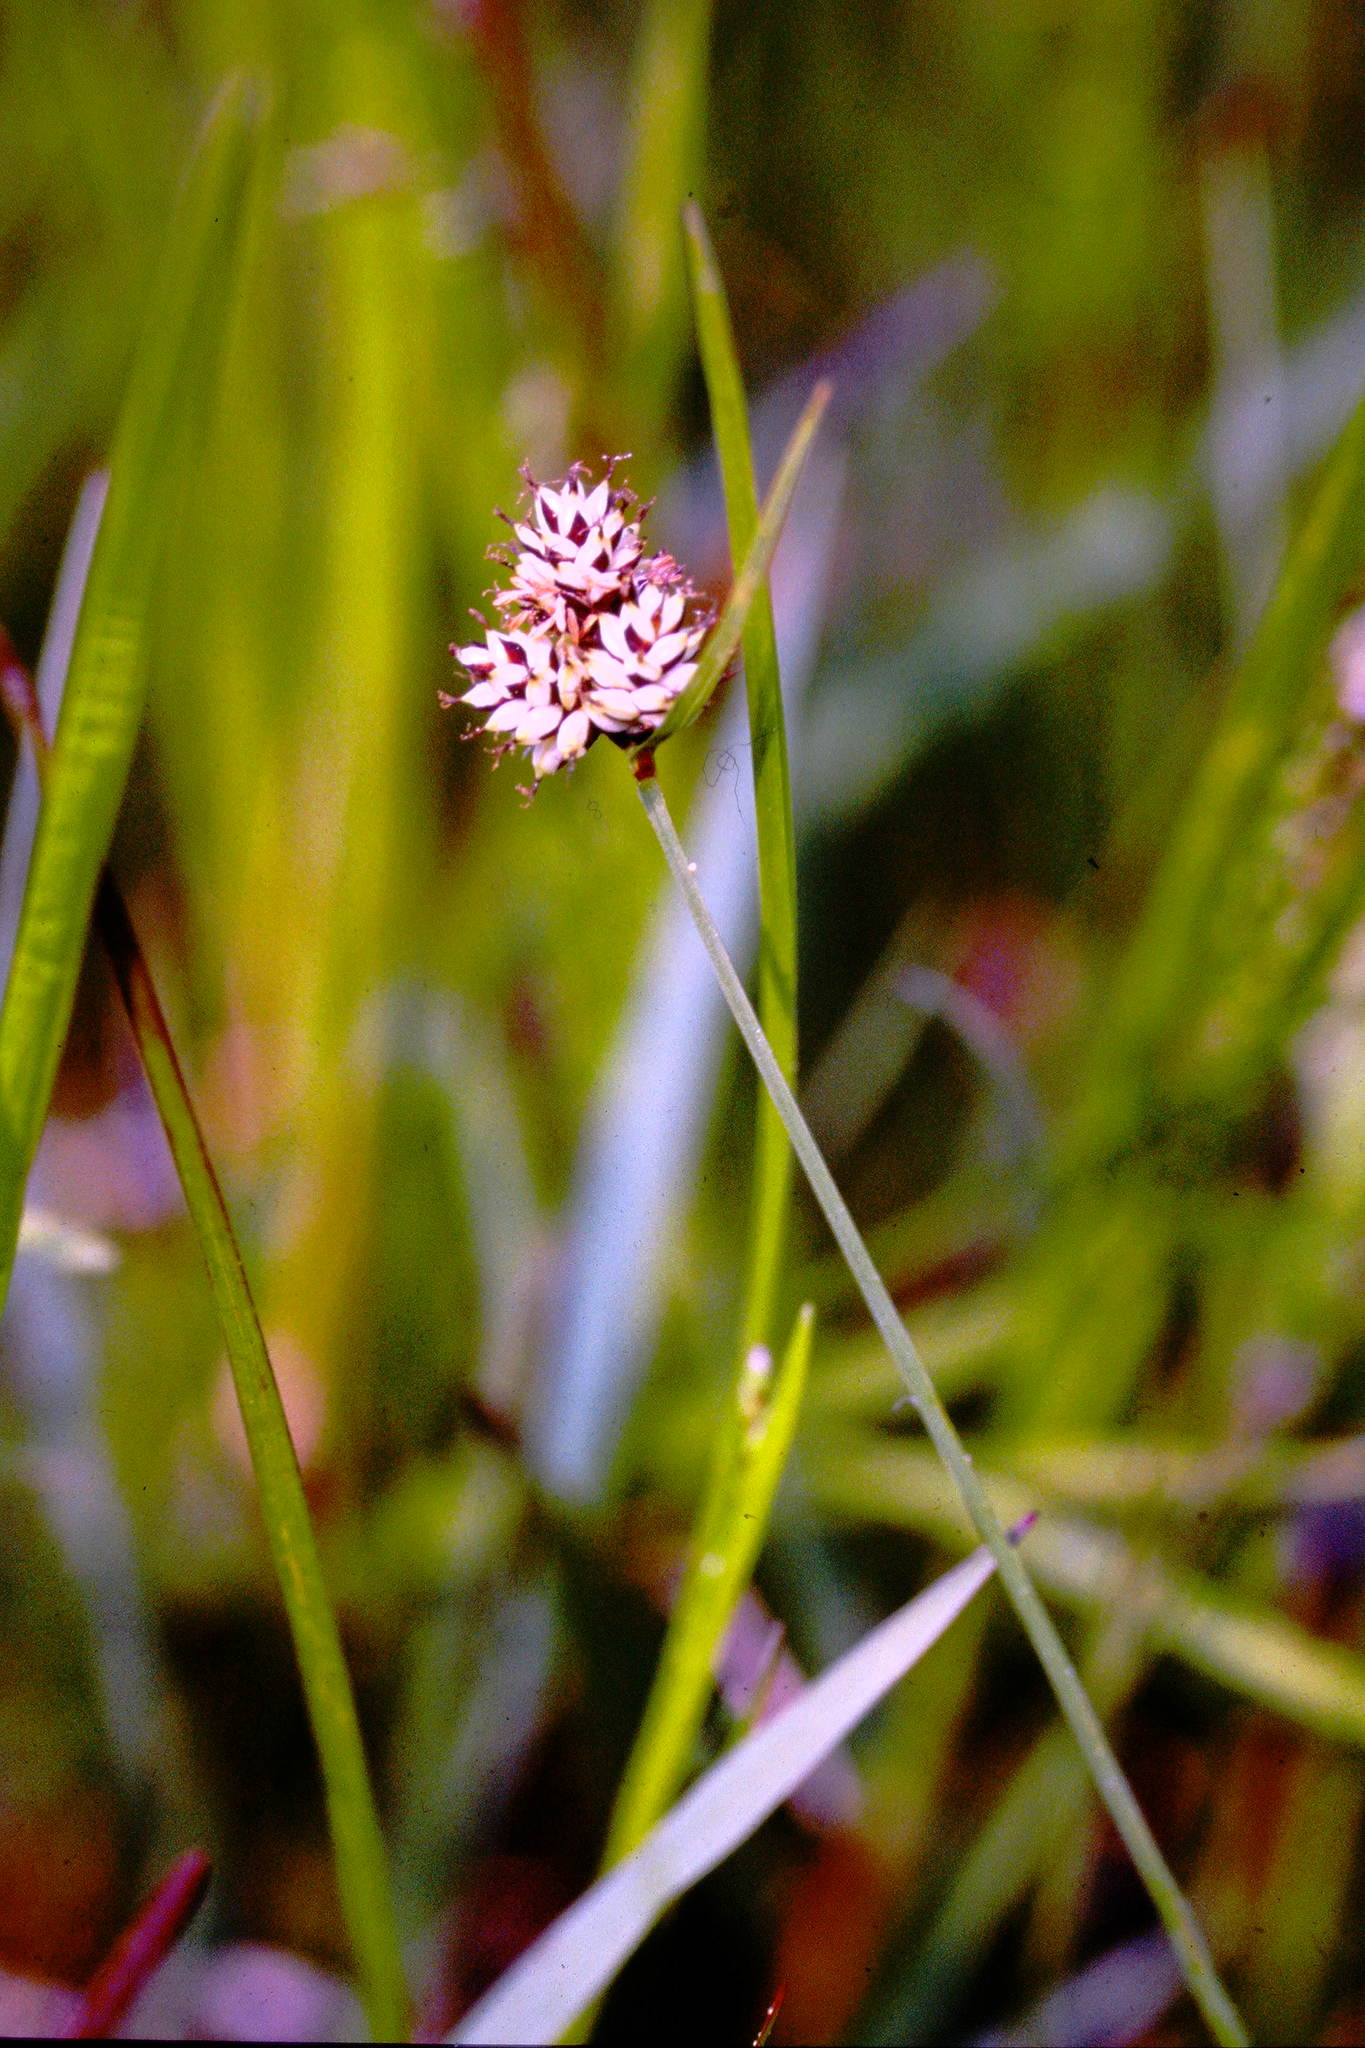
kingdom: Plantae
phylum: Tracheophyta
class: Liliopsida
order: Poales
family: Cyperaceae
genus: Carex
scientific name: Carex media
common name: Alpine sedge
